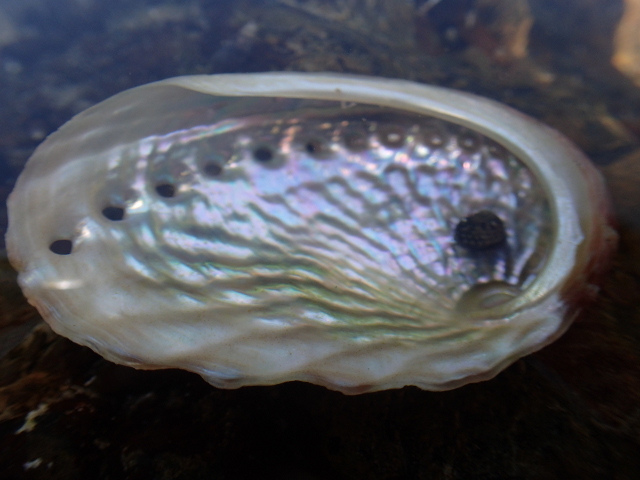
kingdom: Animalia
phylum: Mollusca
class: Gastropoda
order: Lepetellida
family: Haliotidae
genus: Haliotis
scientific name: Haliotis australis
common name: Silver abalone
